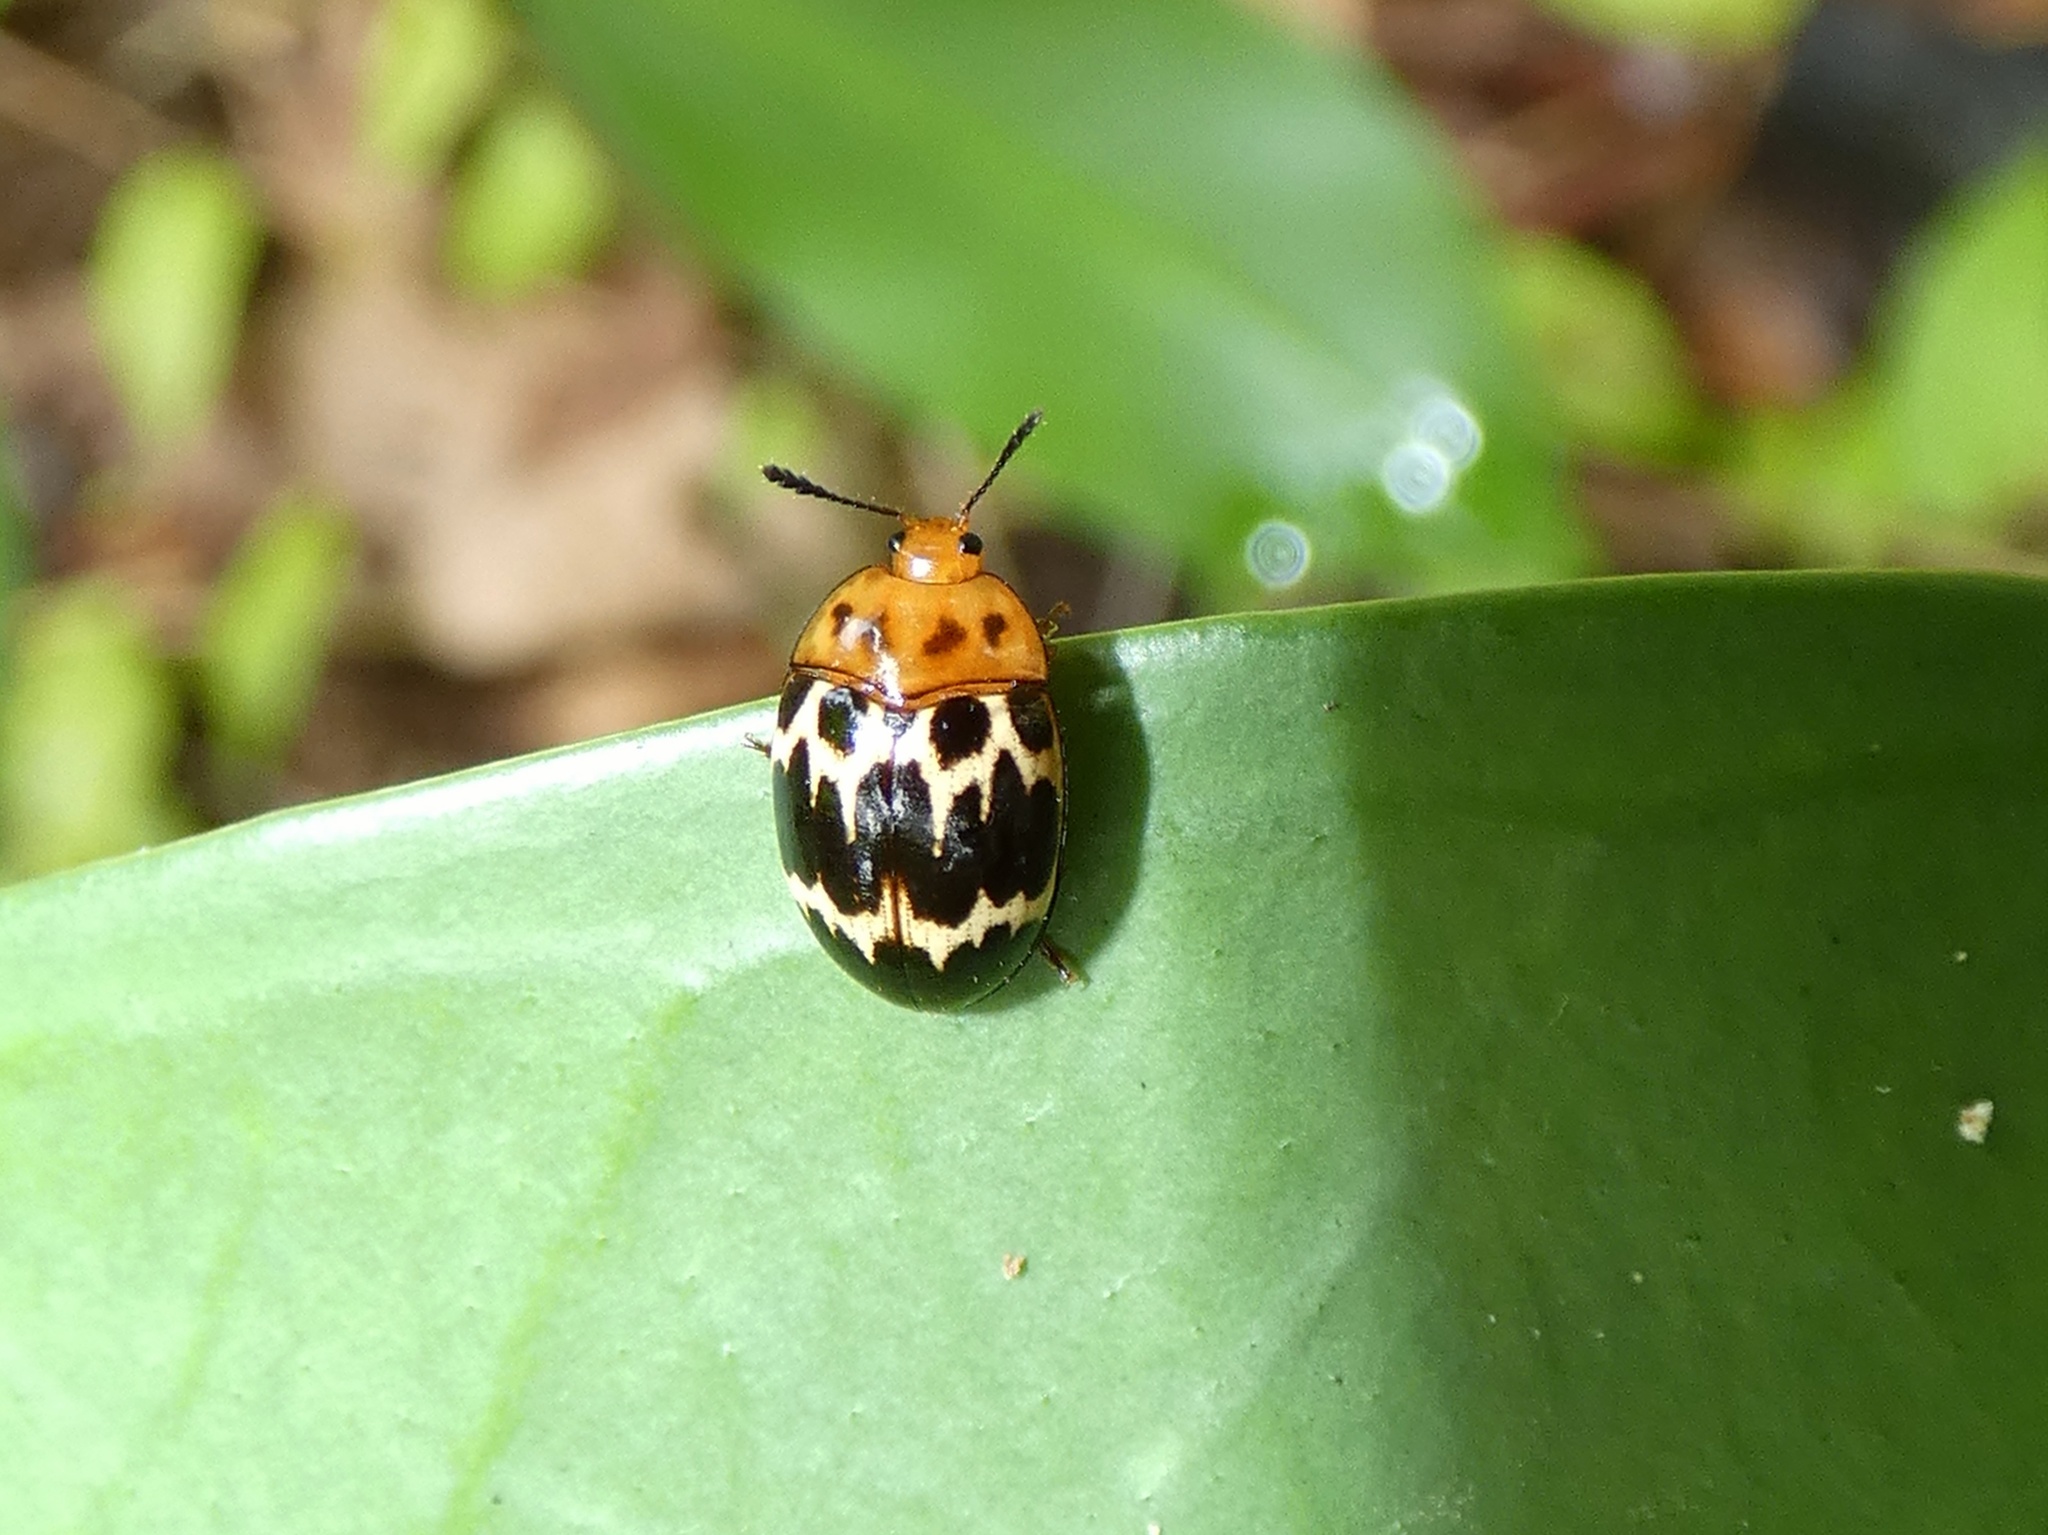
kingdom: Animalia
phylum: Arthropoda
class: Insecta
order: Coleoptera
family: Erotylidae
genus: Iphiclus
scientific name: Iphiclus delineatus
